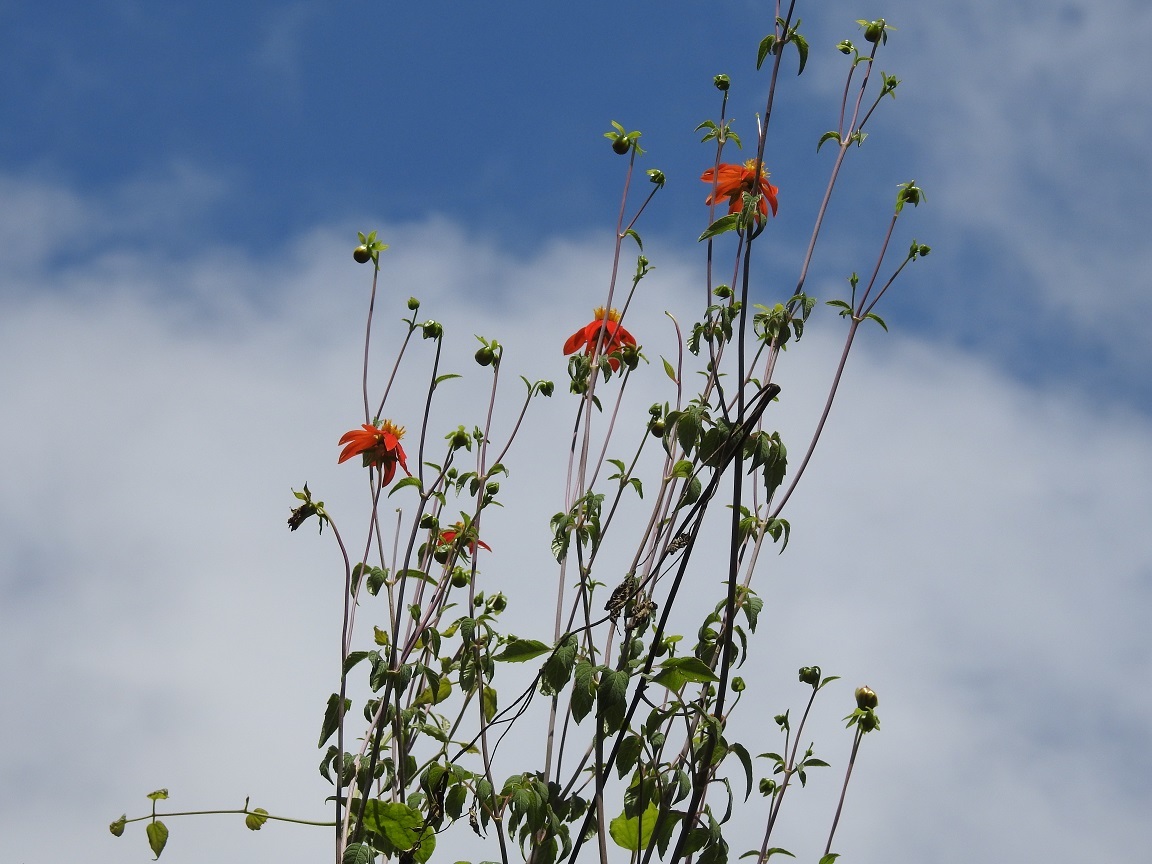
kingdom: Plantae
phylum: Tracheophyta
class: Magnoliopsida
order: Asterales
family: Asteraceae
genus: Dahlia
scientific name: Dahlia coccinea
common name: Red dahlia
